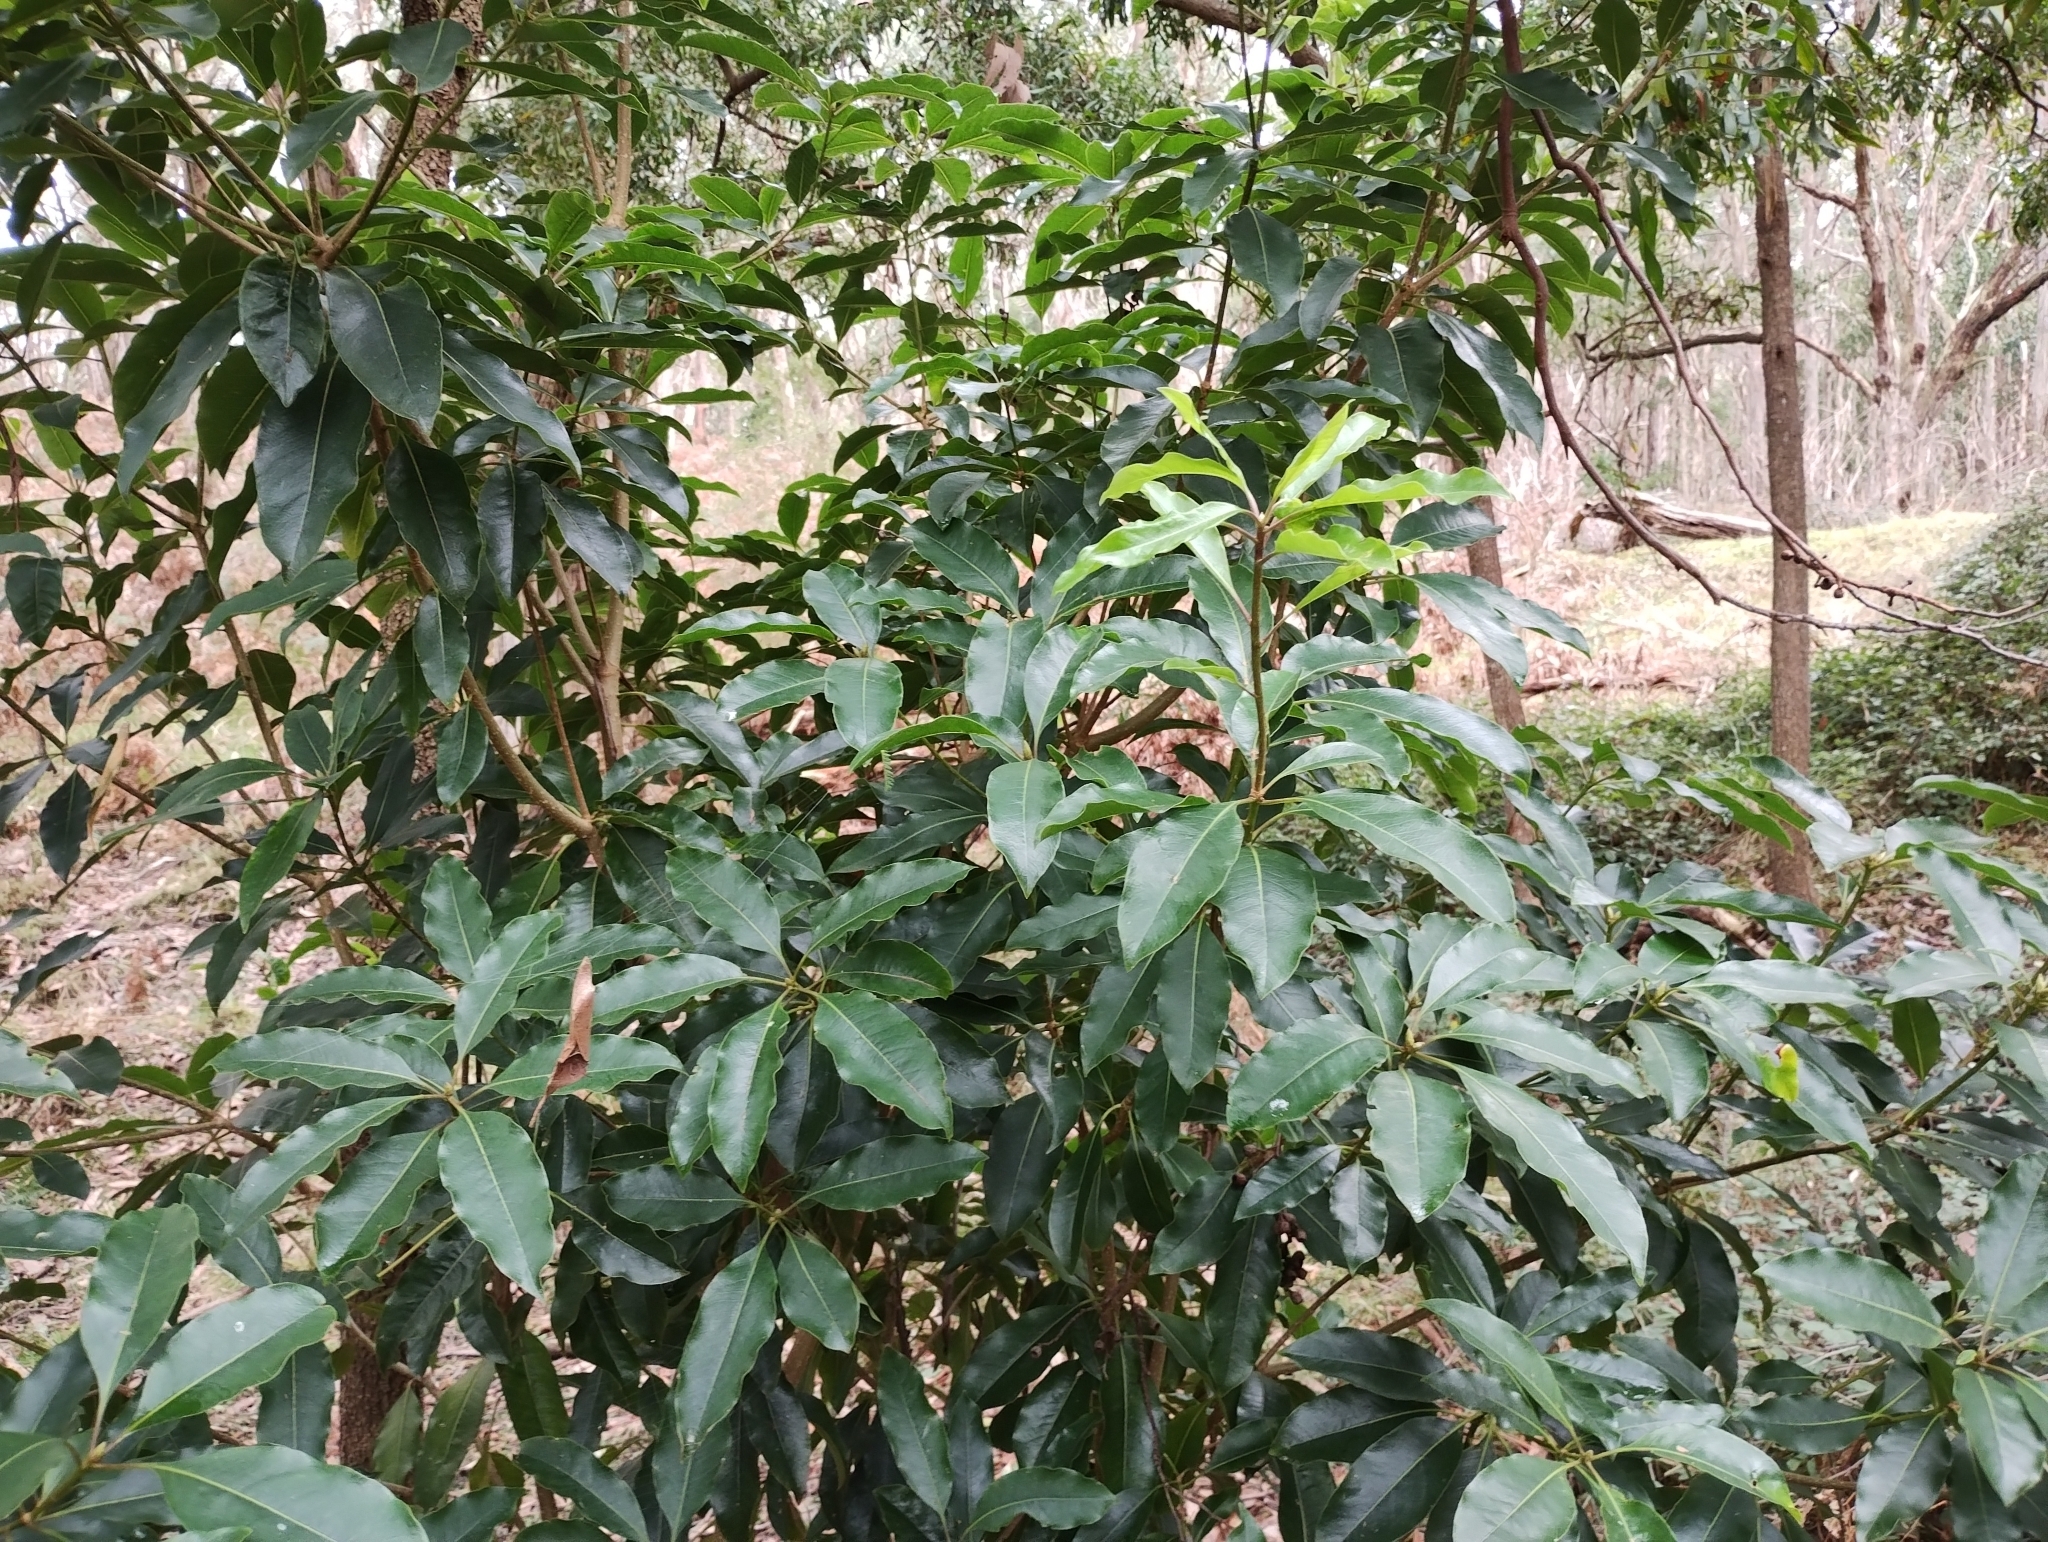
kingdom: Plantae
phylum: Tracheophyta
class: Magnoliopsida
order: Apiales
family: Pittosporaceae
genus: Pittosporum
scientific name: Pittosporum undulatum
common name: Australian cheesewood
